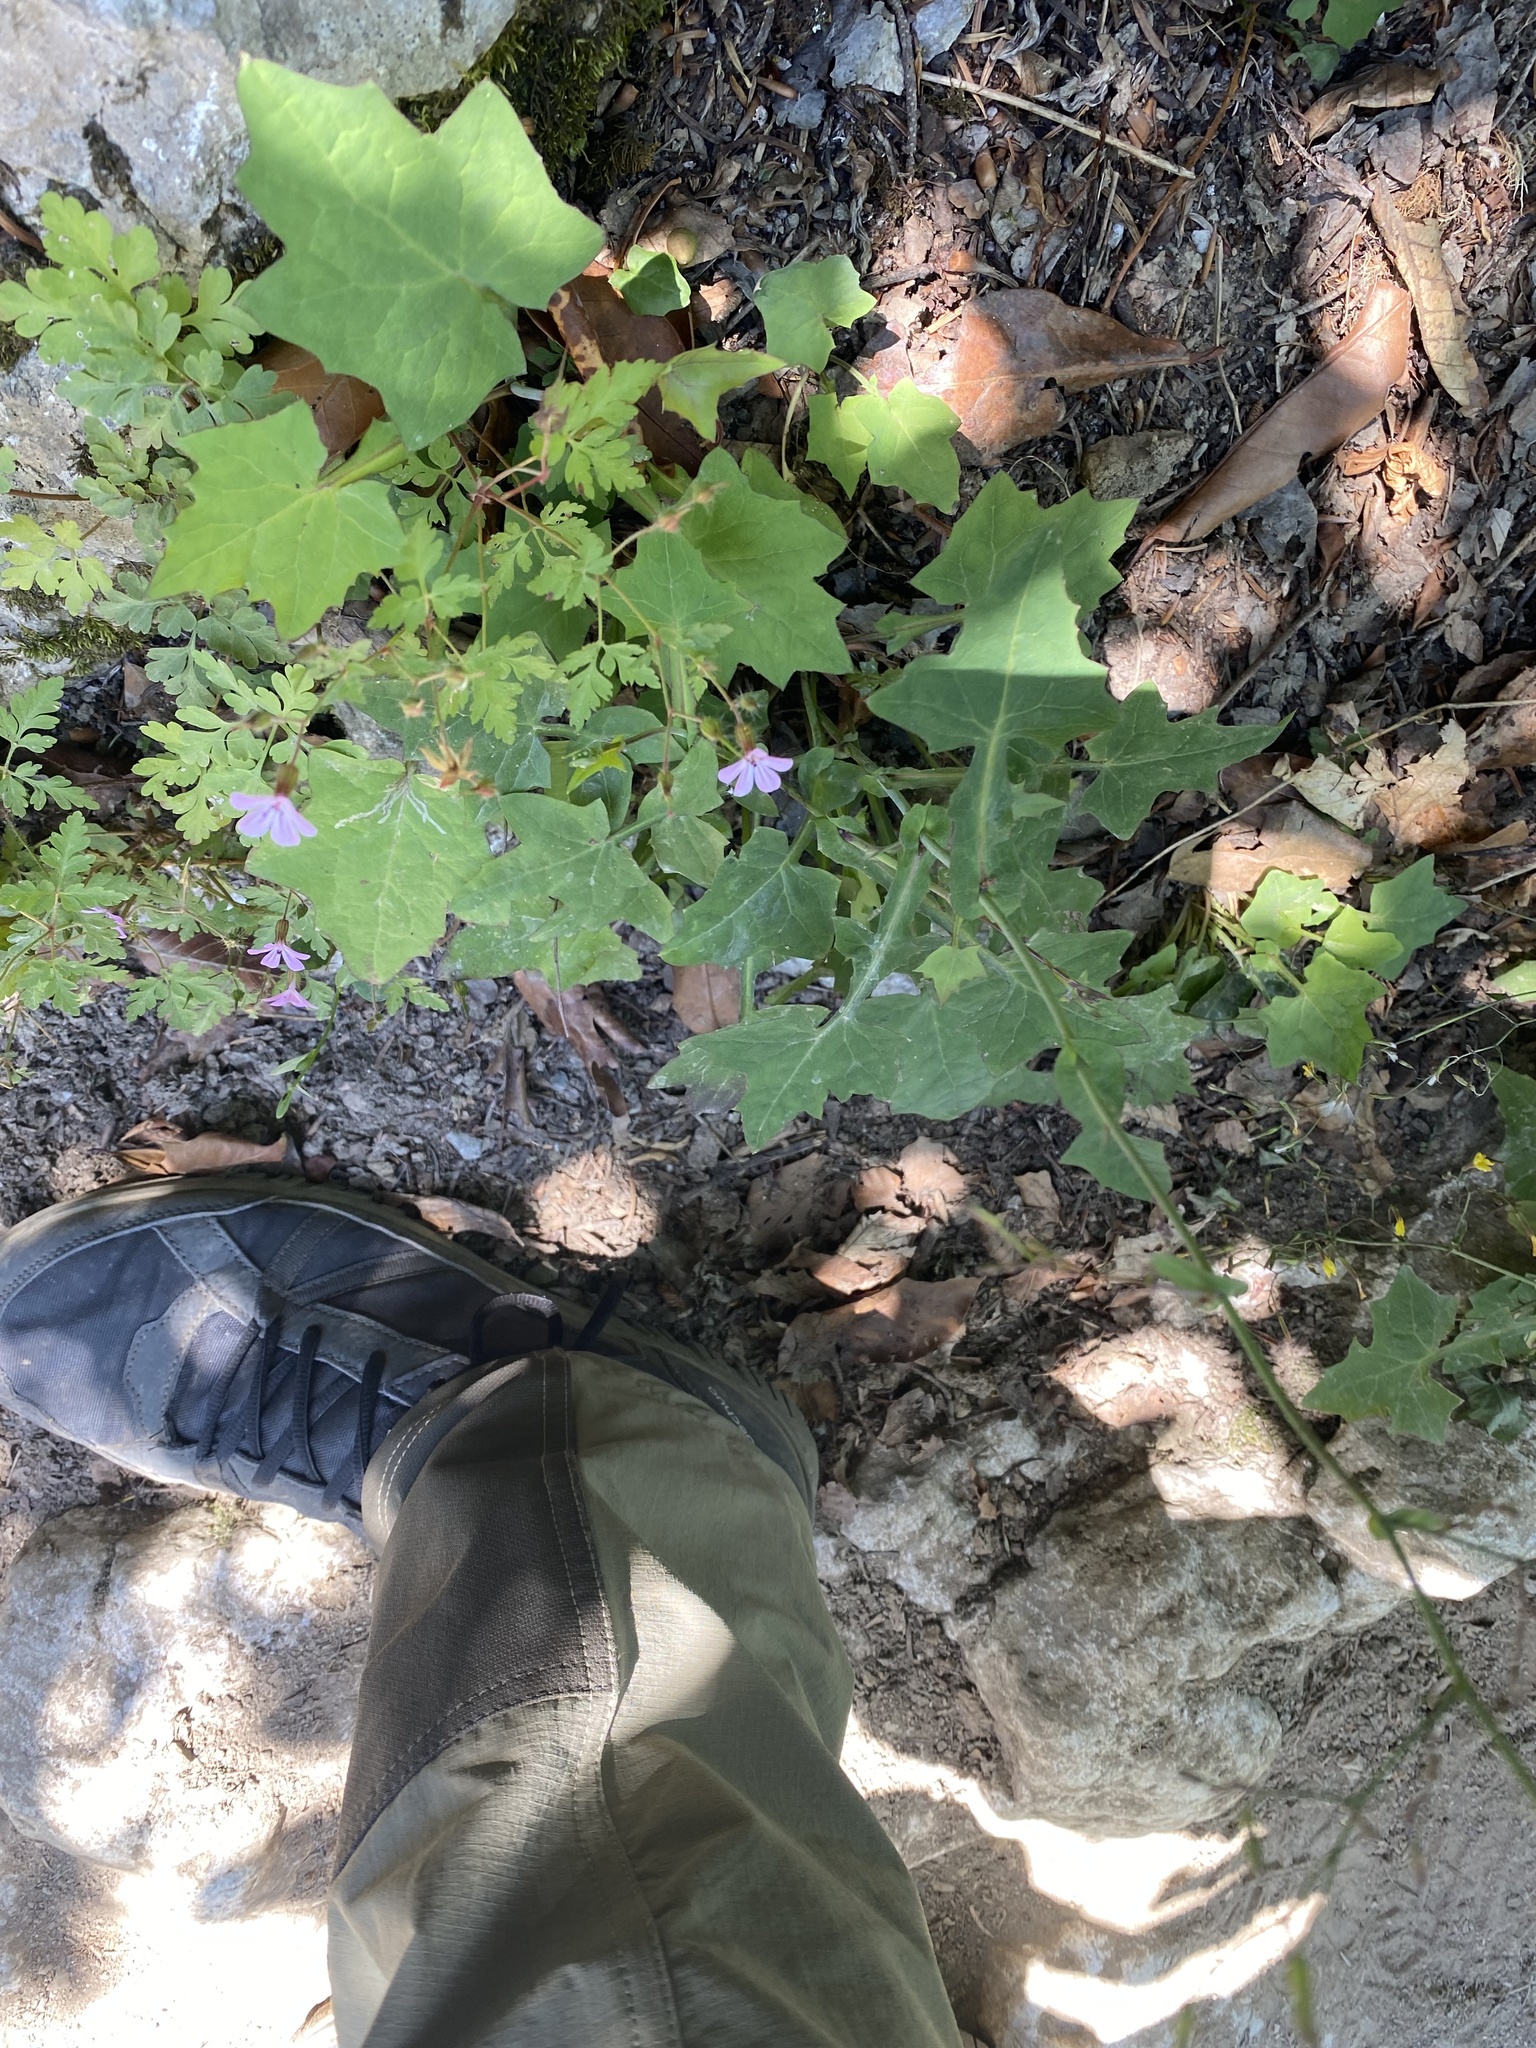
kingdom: Plantae
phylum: Tracheophyta
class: Magnoliopsida
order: Asterales
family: Asteraceae
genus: Mycelis
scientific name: Mycelis muralis
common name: Wall lettuce
